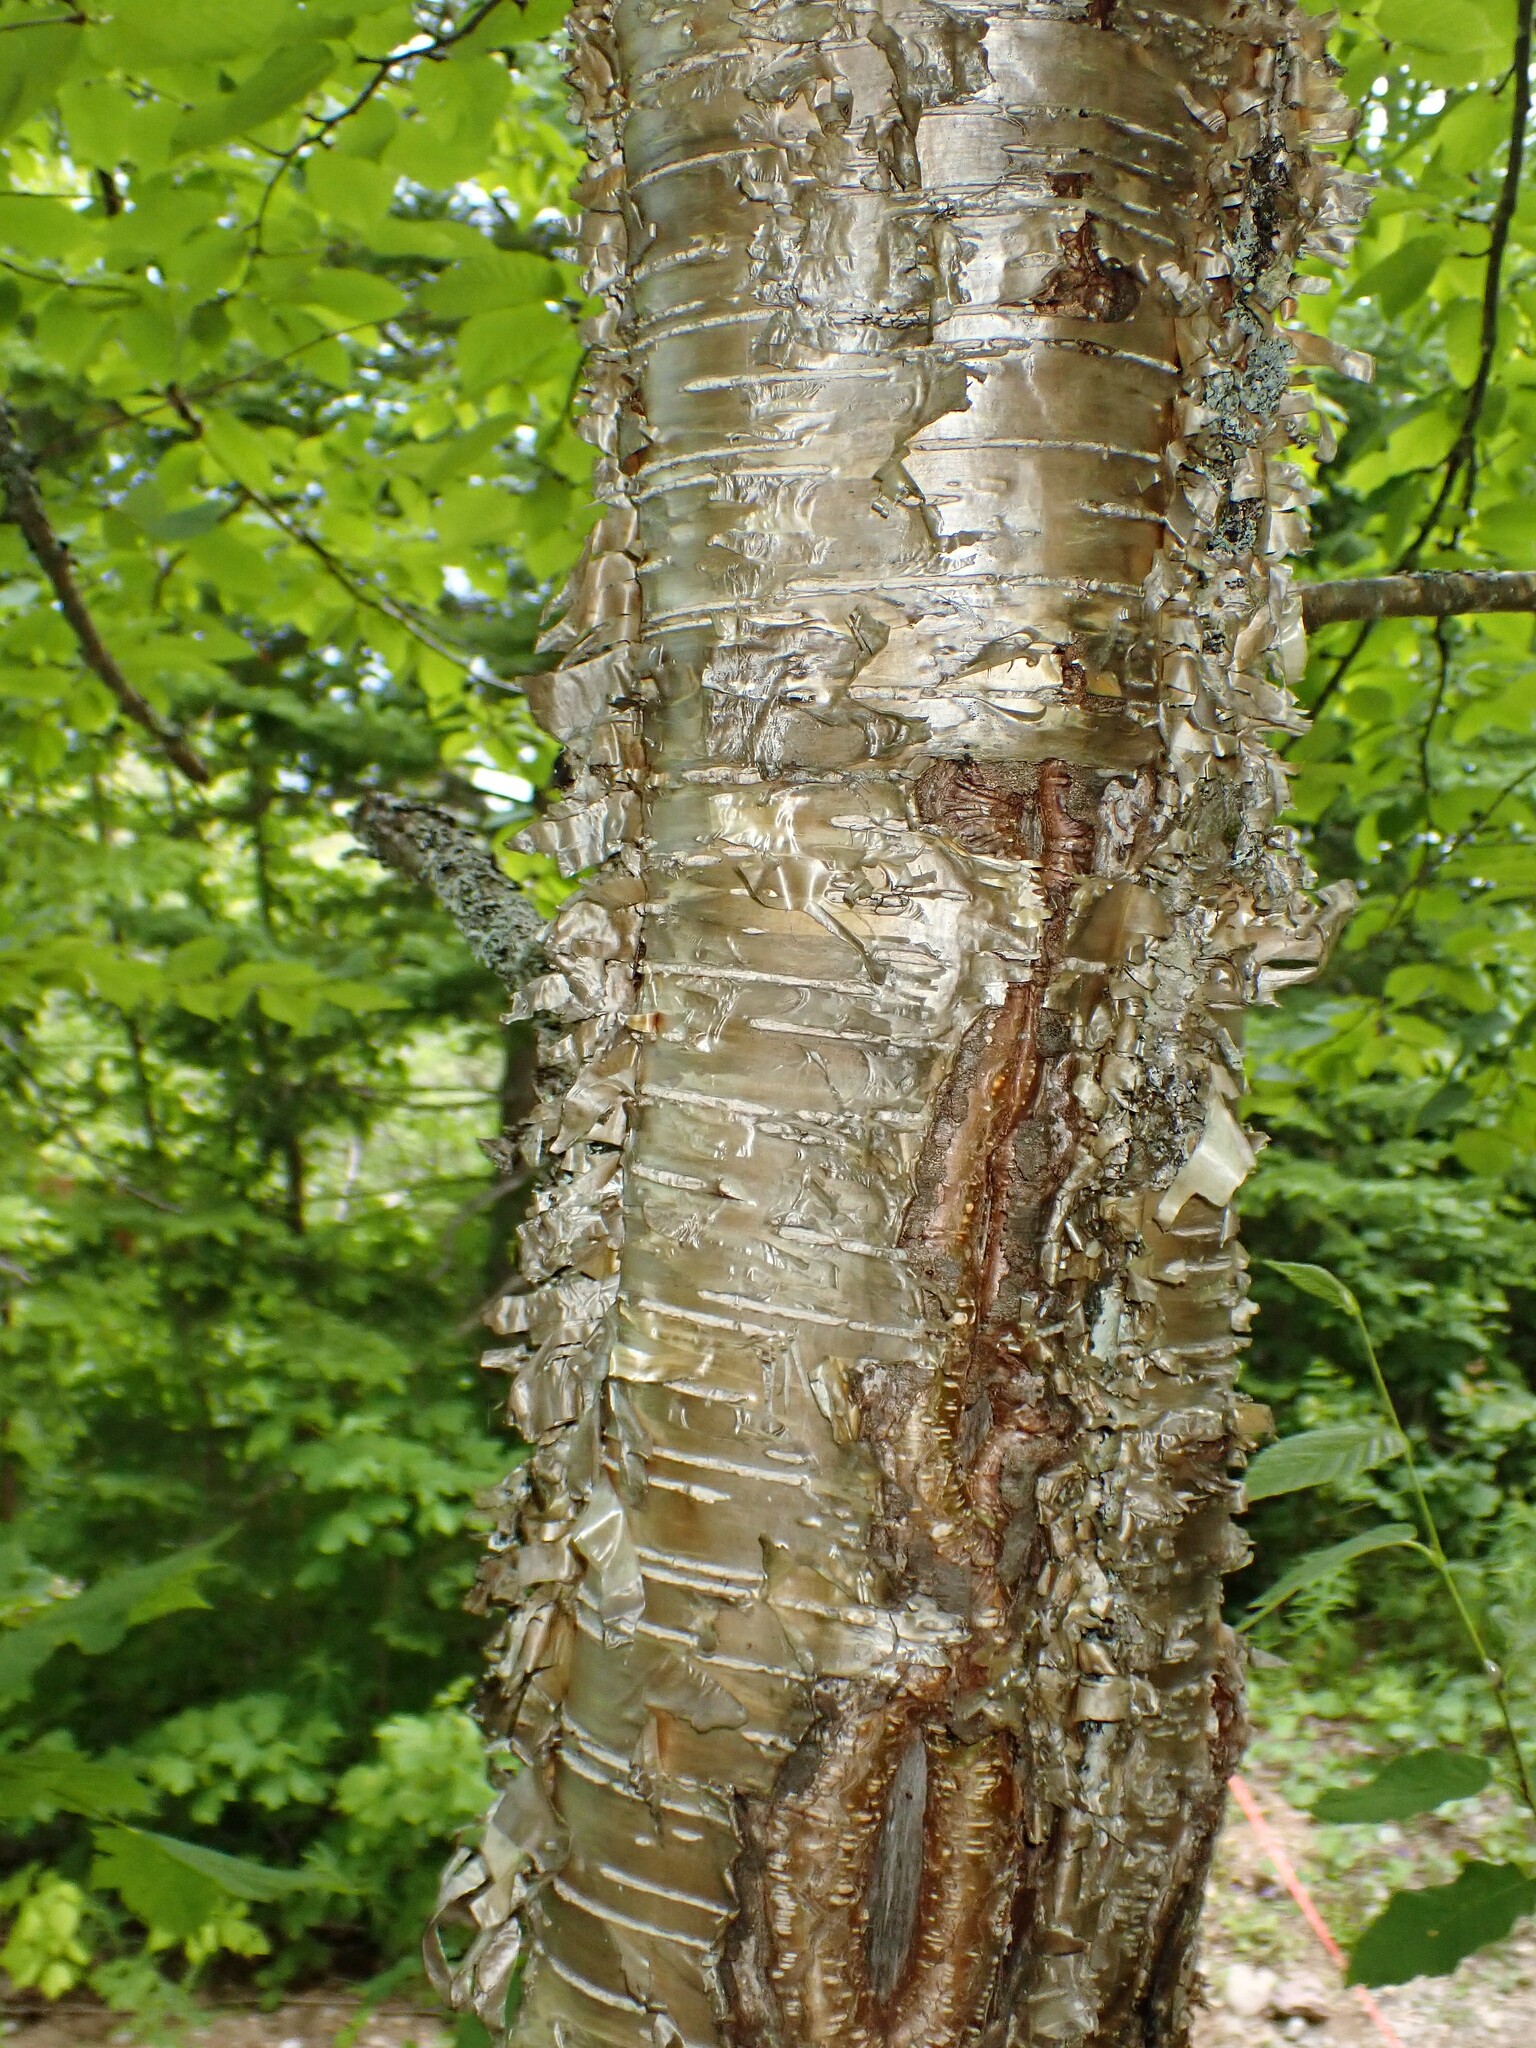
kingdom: Plantae
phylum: Tracheophyta
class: Magnoliopsida
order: Fagales
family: Betulaceae
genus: Betula
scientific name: Betula alleghaniensis
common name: Yellow birch
